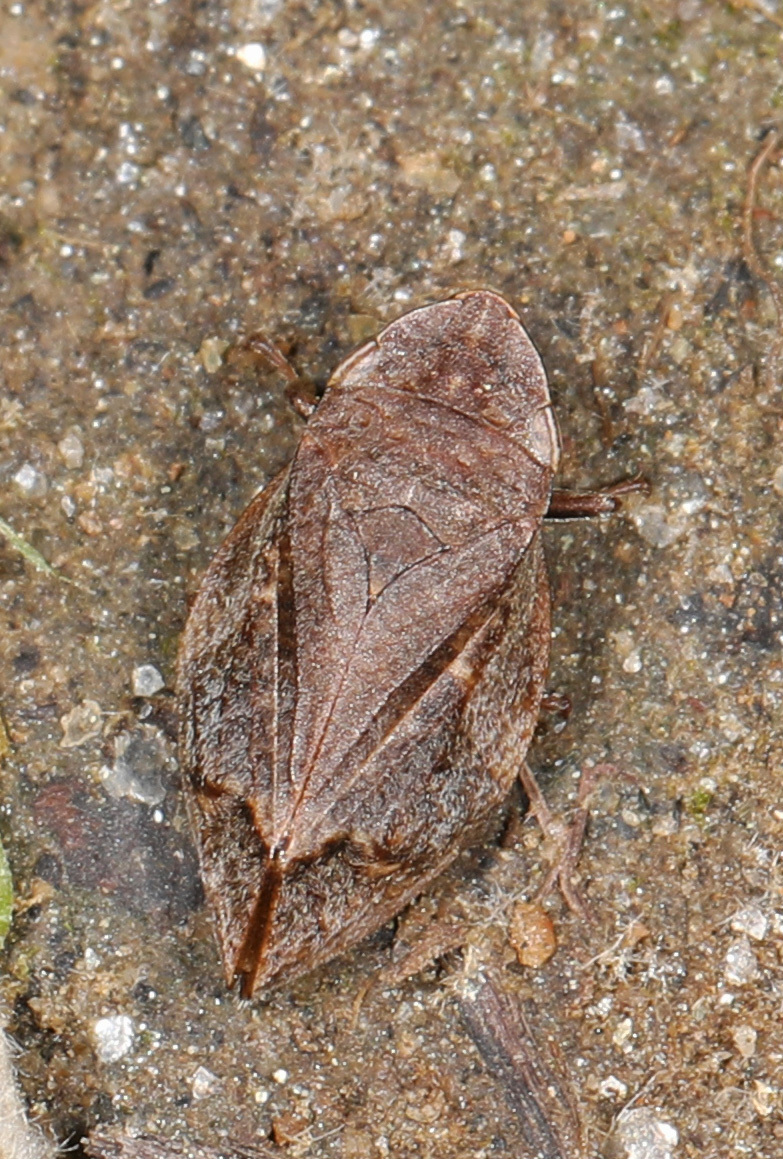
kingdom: Animalia
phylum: Arthropoda
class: Insecta
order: Hemiptera
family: Aphrophoridae
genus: Lepyronia
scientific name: Lepyronia quadrangularis
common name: Diamond-backed spittlebug
